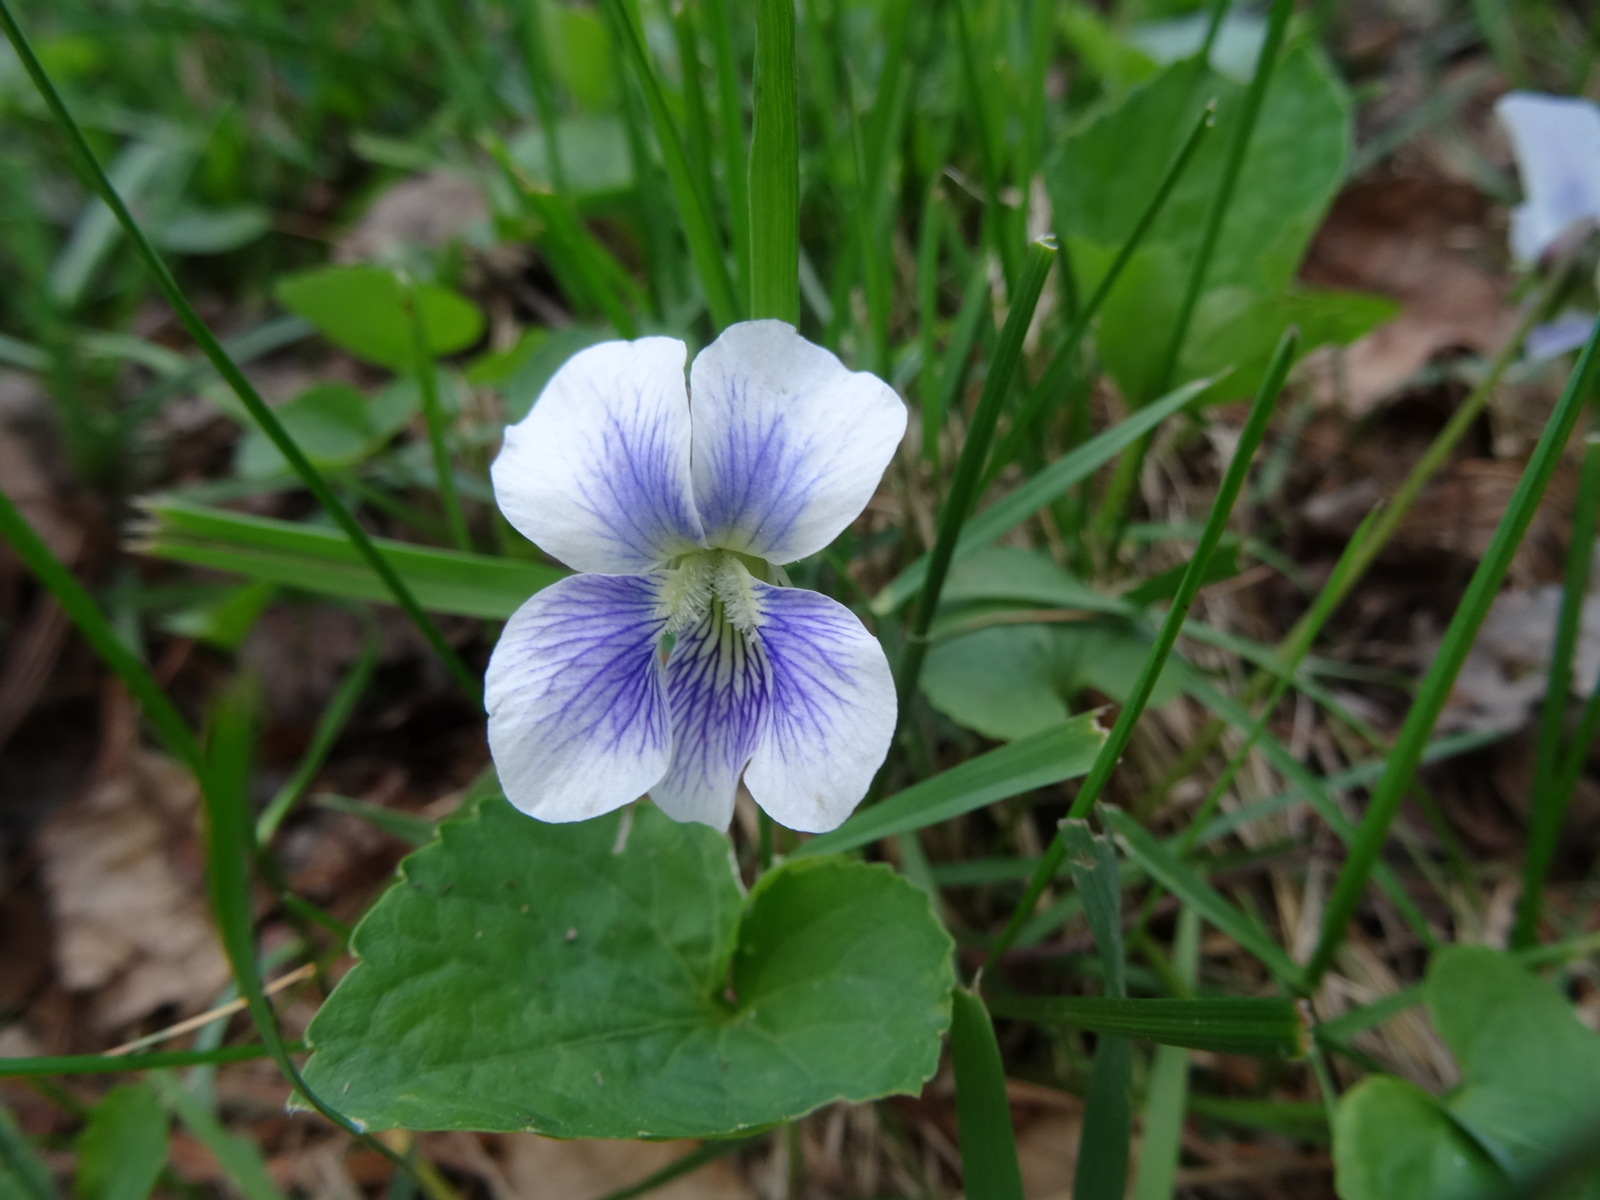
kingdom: Plantae
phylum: Tracheophyta
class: Magnoliopsida
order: Malpighiales
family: Violaceae
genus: Viola
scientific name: Viola sororia
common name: Dooryard violet
